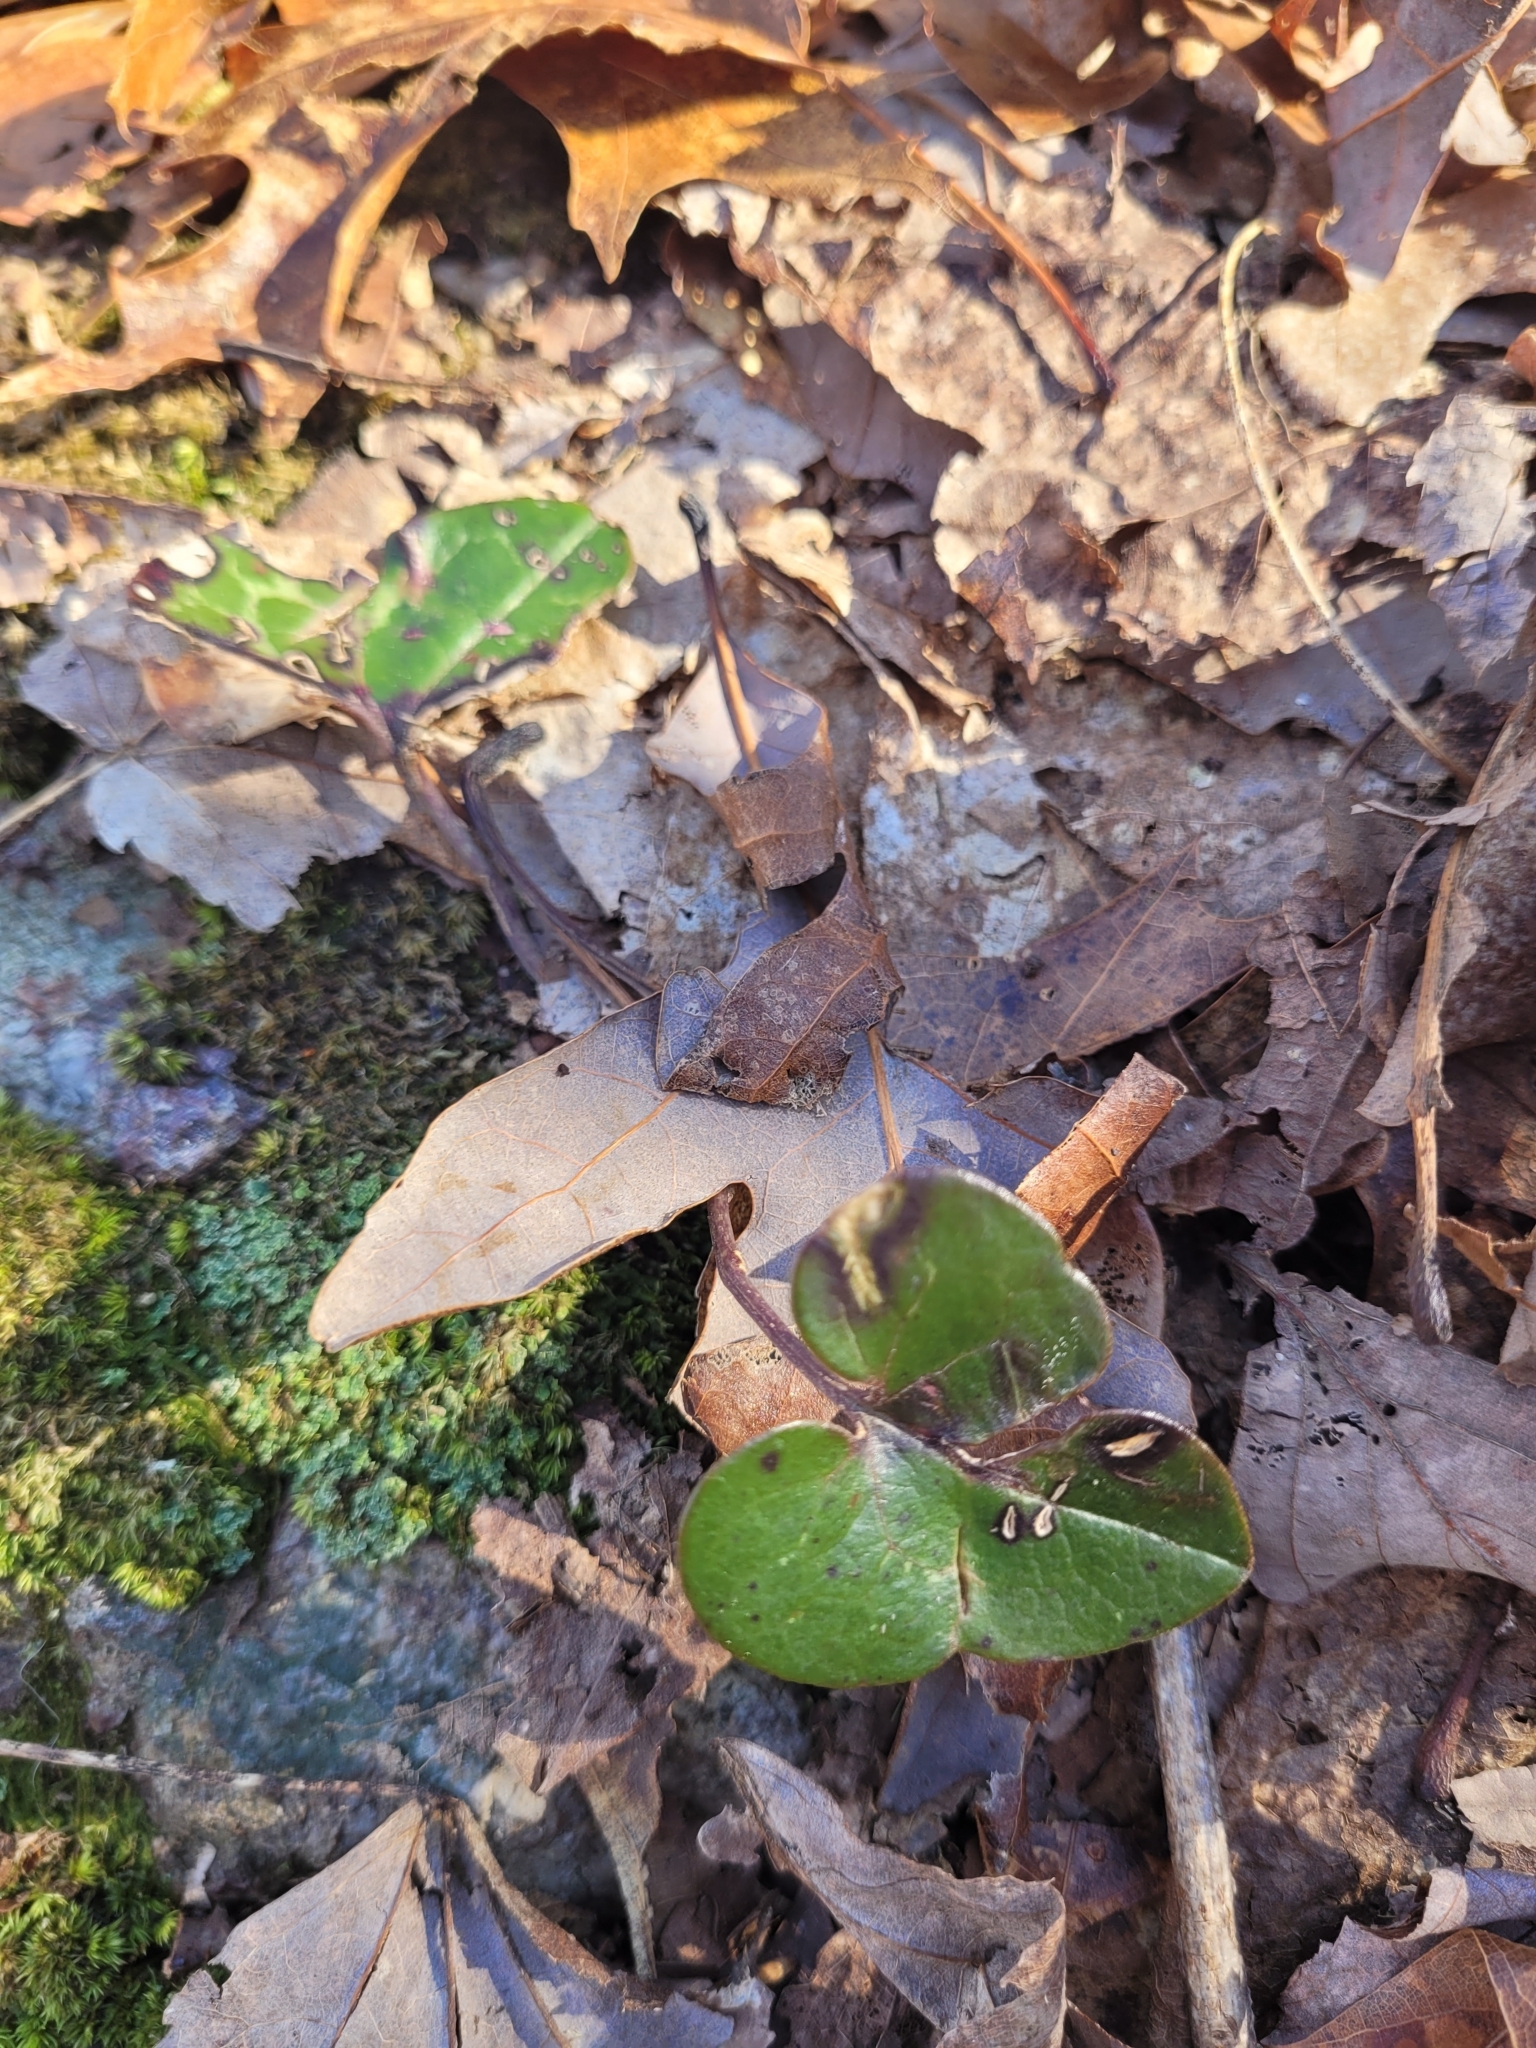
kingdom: Plantae
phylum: Tracheophyta
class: Magnoliopsida
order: Ranunculales
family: Ranunculaceae
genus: Hepatica
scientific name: Hepatica americana
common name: American hepatica
